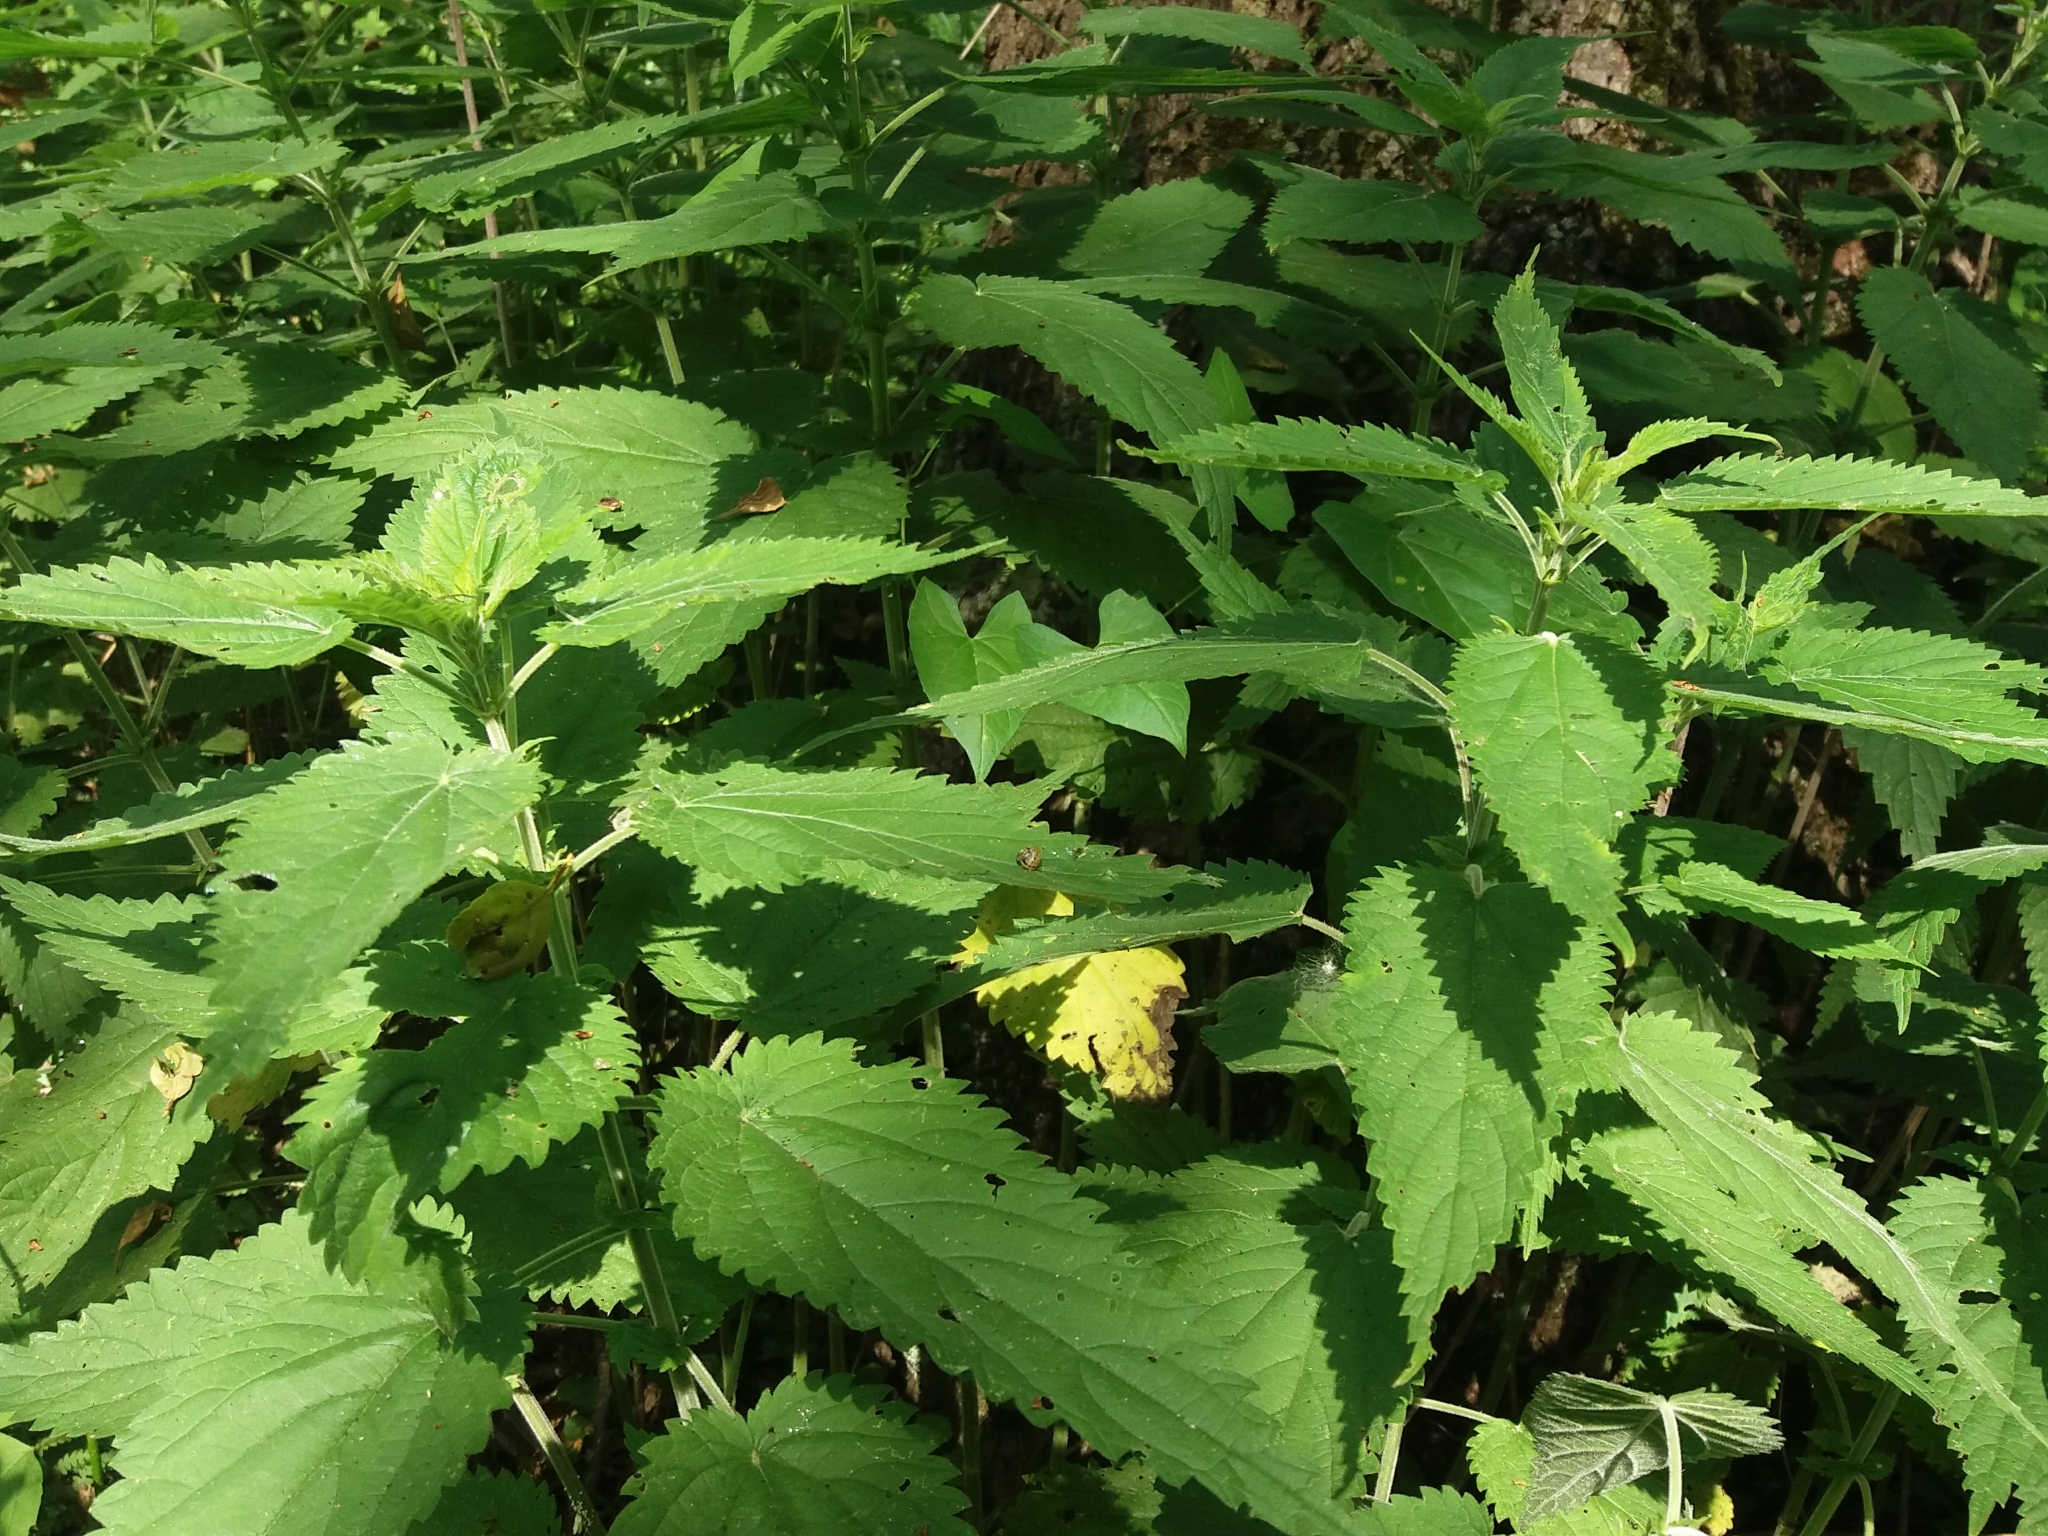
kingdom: Plantae
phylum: Tracheophyta
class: Magnoliopsida
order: Rosales
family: Urticaceae
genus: Urtica
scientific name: Urtica galeopsifolia
